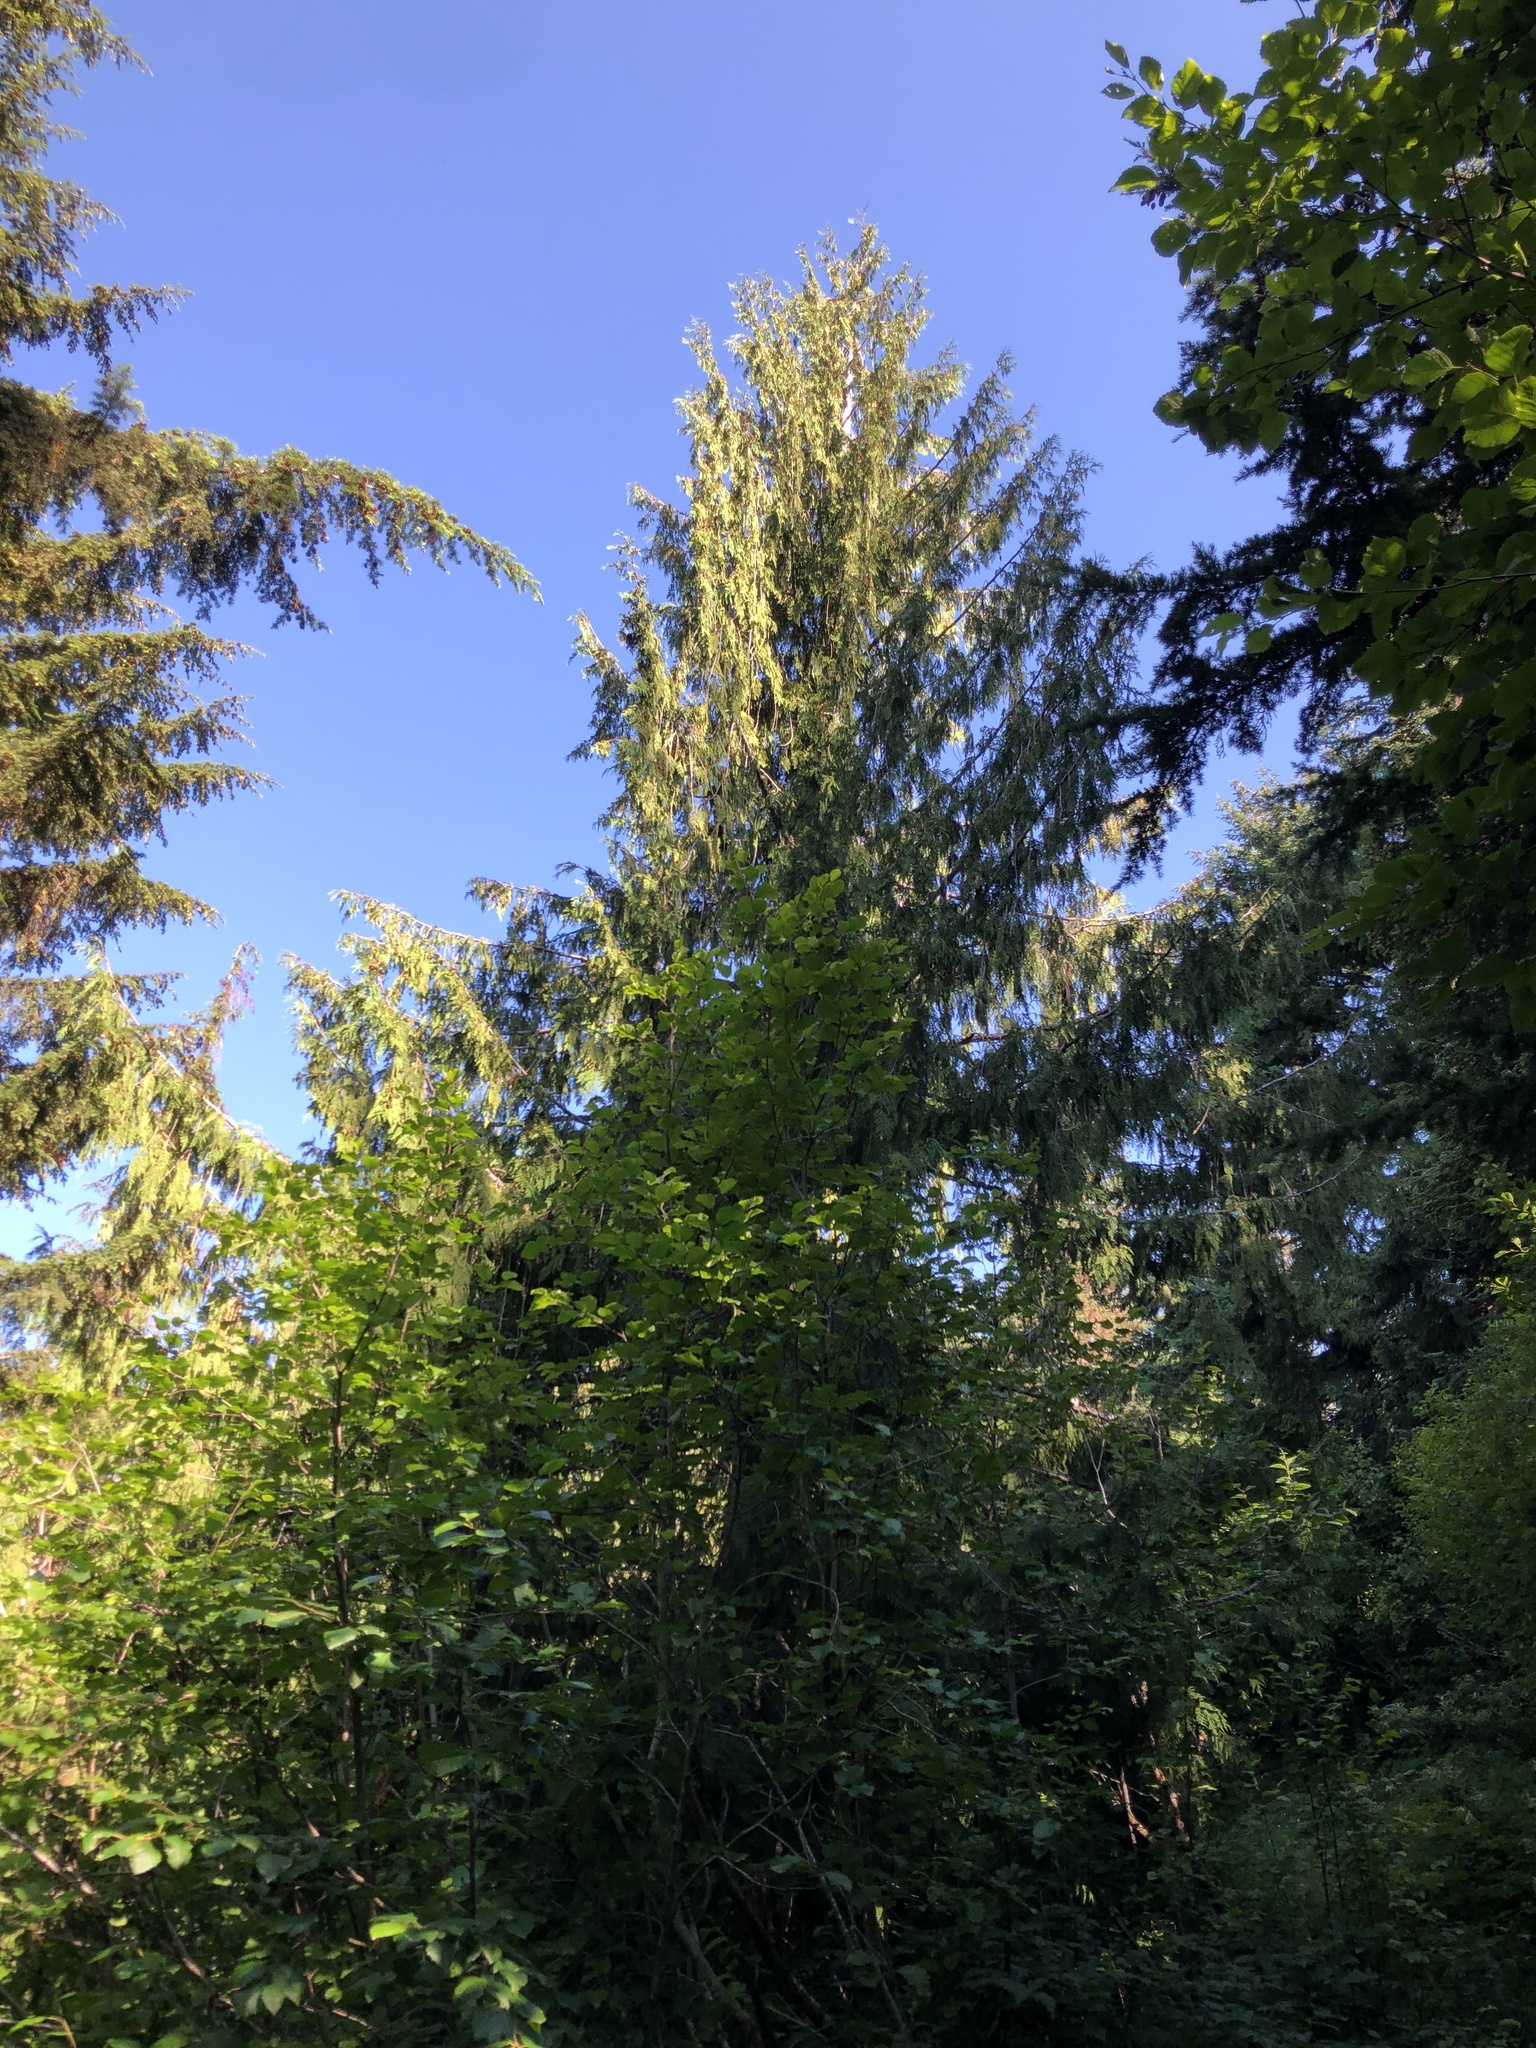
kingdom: Plantae
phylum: Tracheophyta
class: Pinopsida
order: Pinales
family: Cupressaceae
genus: Thuja
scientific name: Thuja plicata
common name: Western red-cedar
